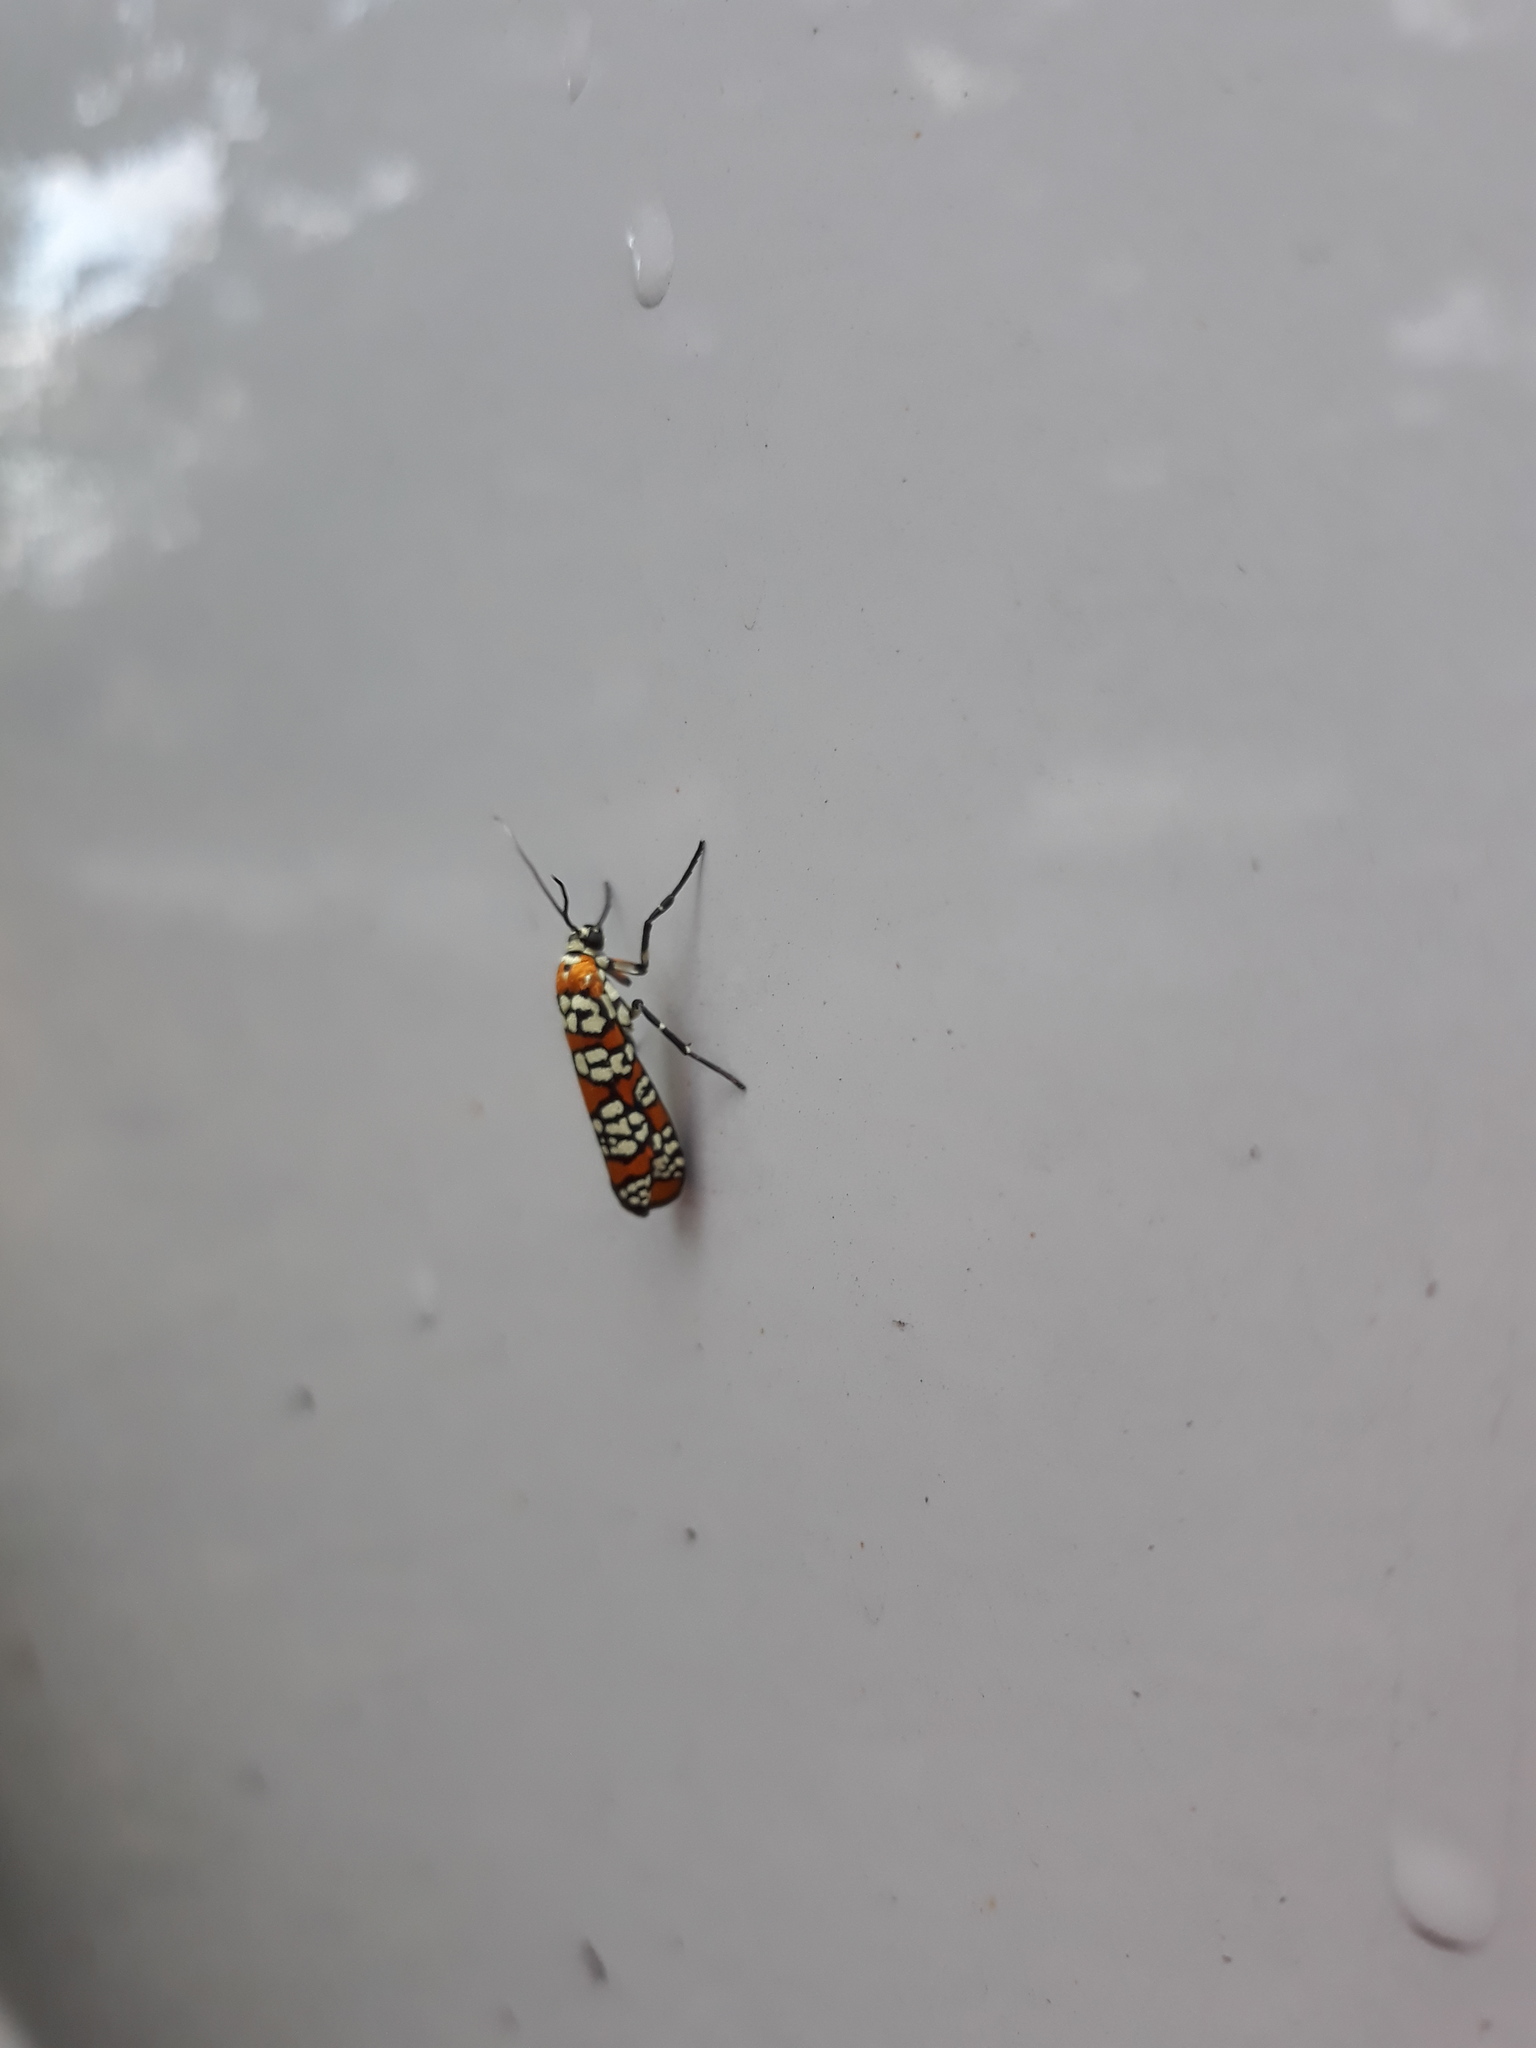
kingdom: Animalia
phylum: Arthropoda
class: Insecta
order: Lepidoptera
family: Attevidae
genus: Atteva
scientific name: Atteva punctella
